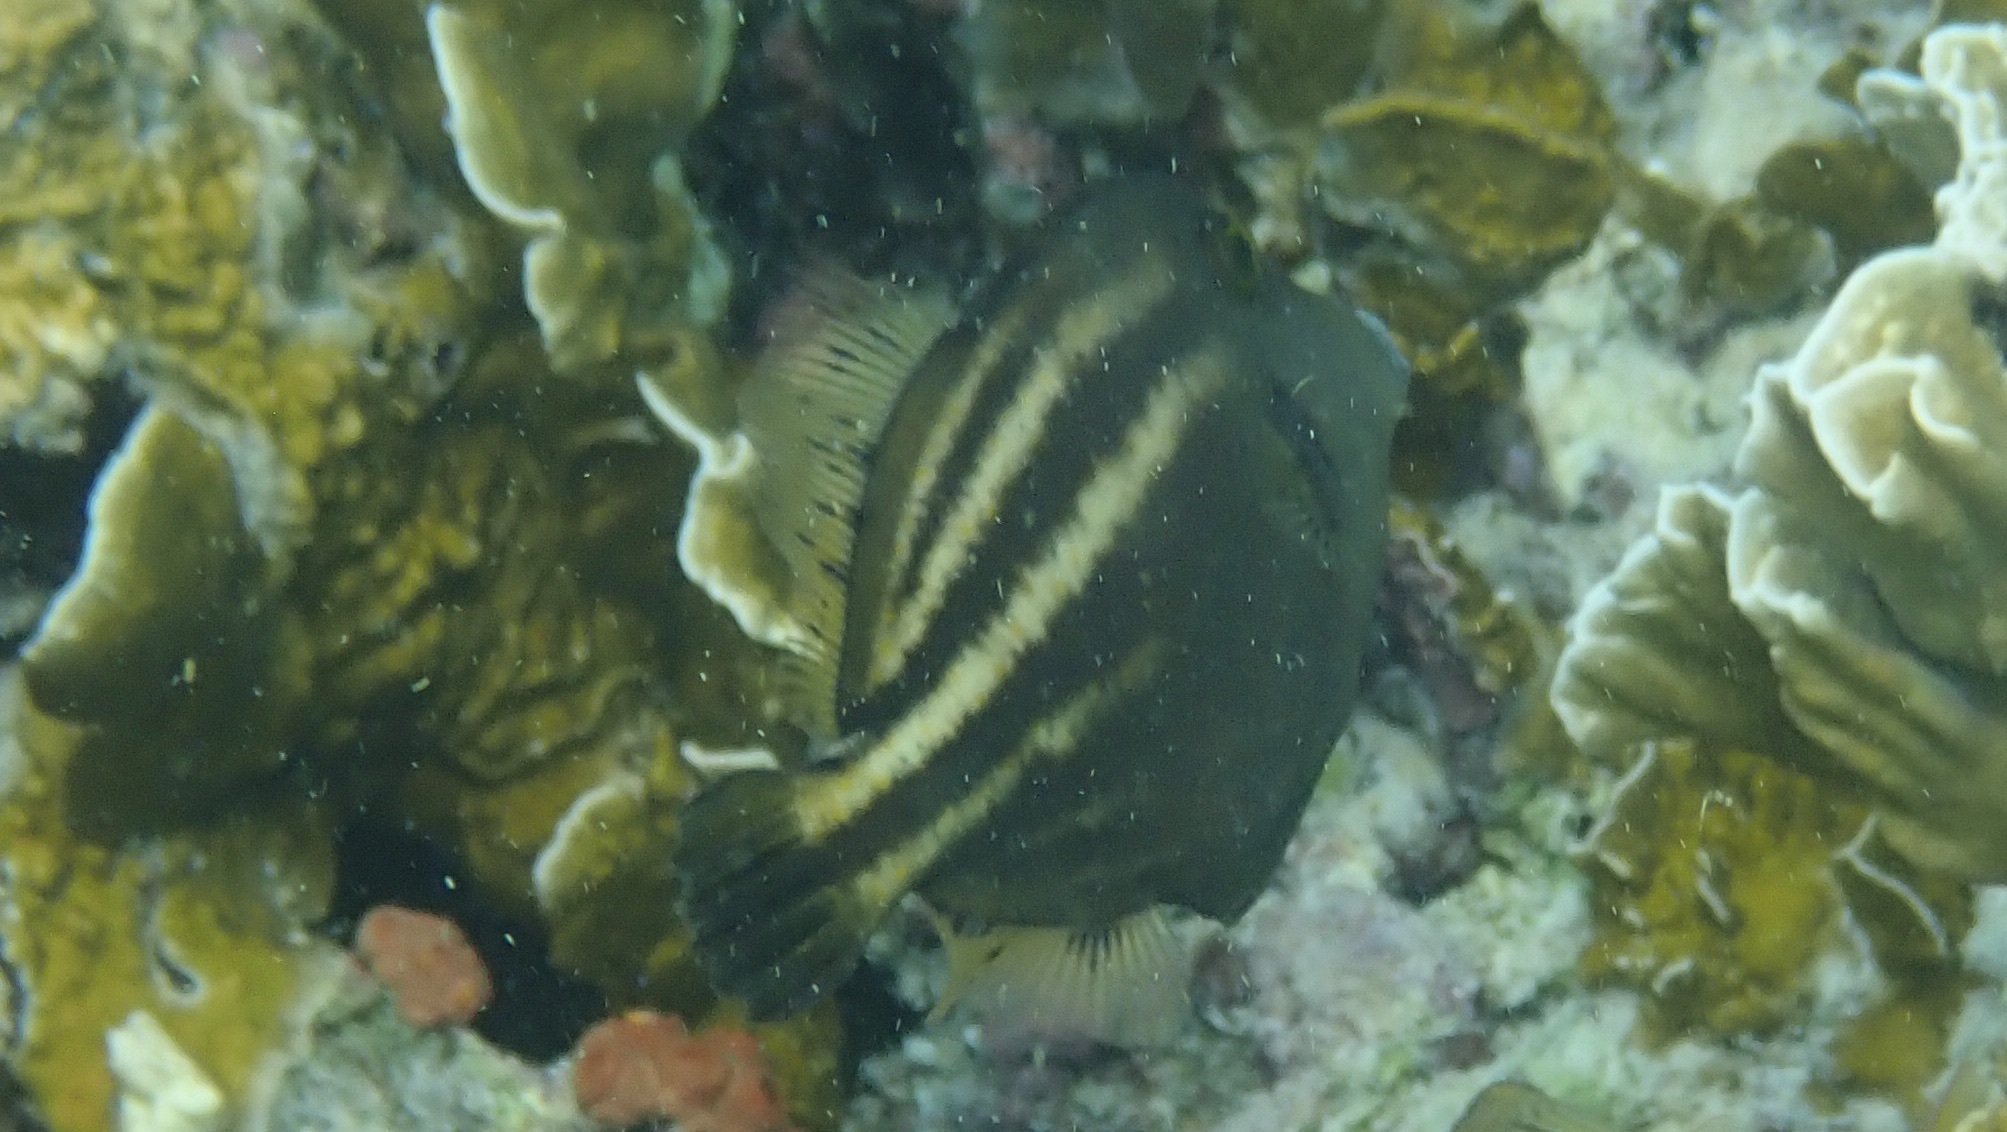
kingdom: Animalia
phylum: Chordata
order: Tetraodontiformes
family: Monacanthidae
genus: Cantherhines
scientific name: Cantherhines pullus
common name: Orangespotted filefish
